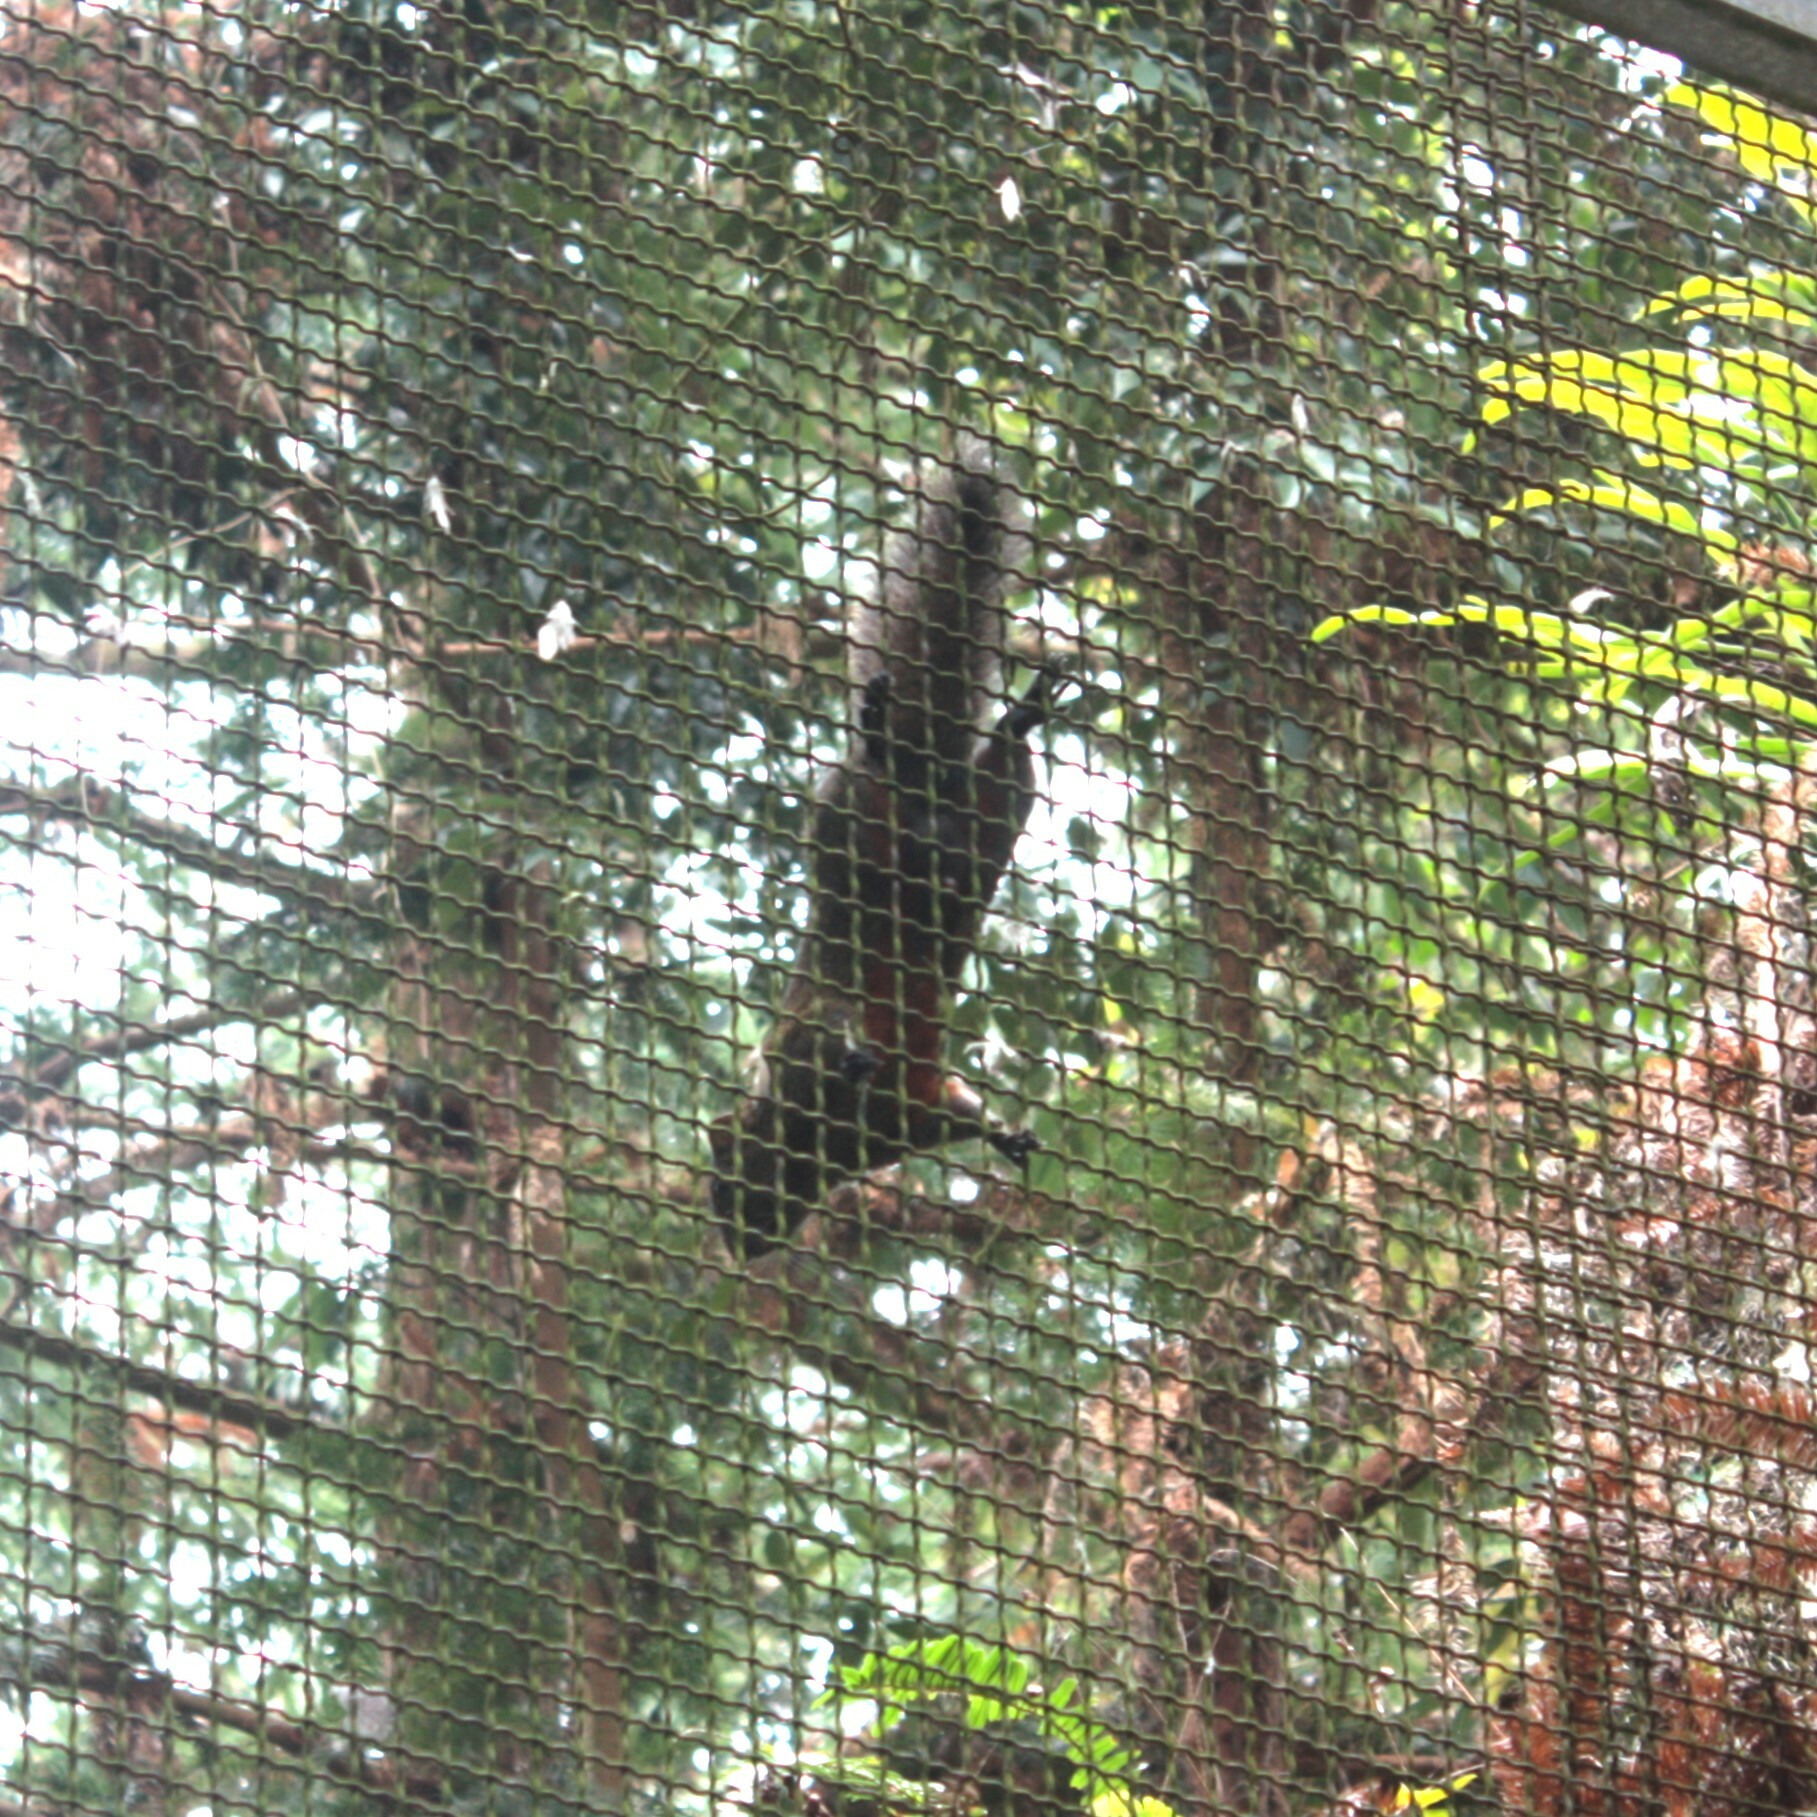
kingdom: Animalia
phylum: Chordata
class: Mammalia
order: Rodentia
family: Sciuridae
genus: Callosciurus
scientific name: Callosciurus erythraeus
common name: Pallas's squirrel
